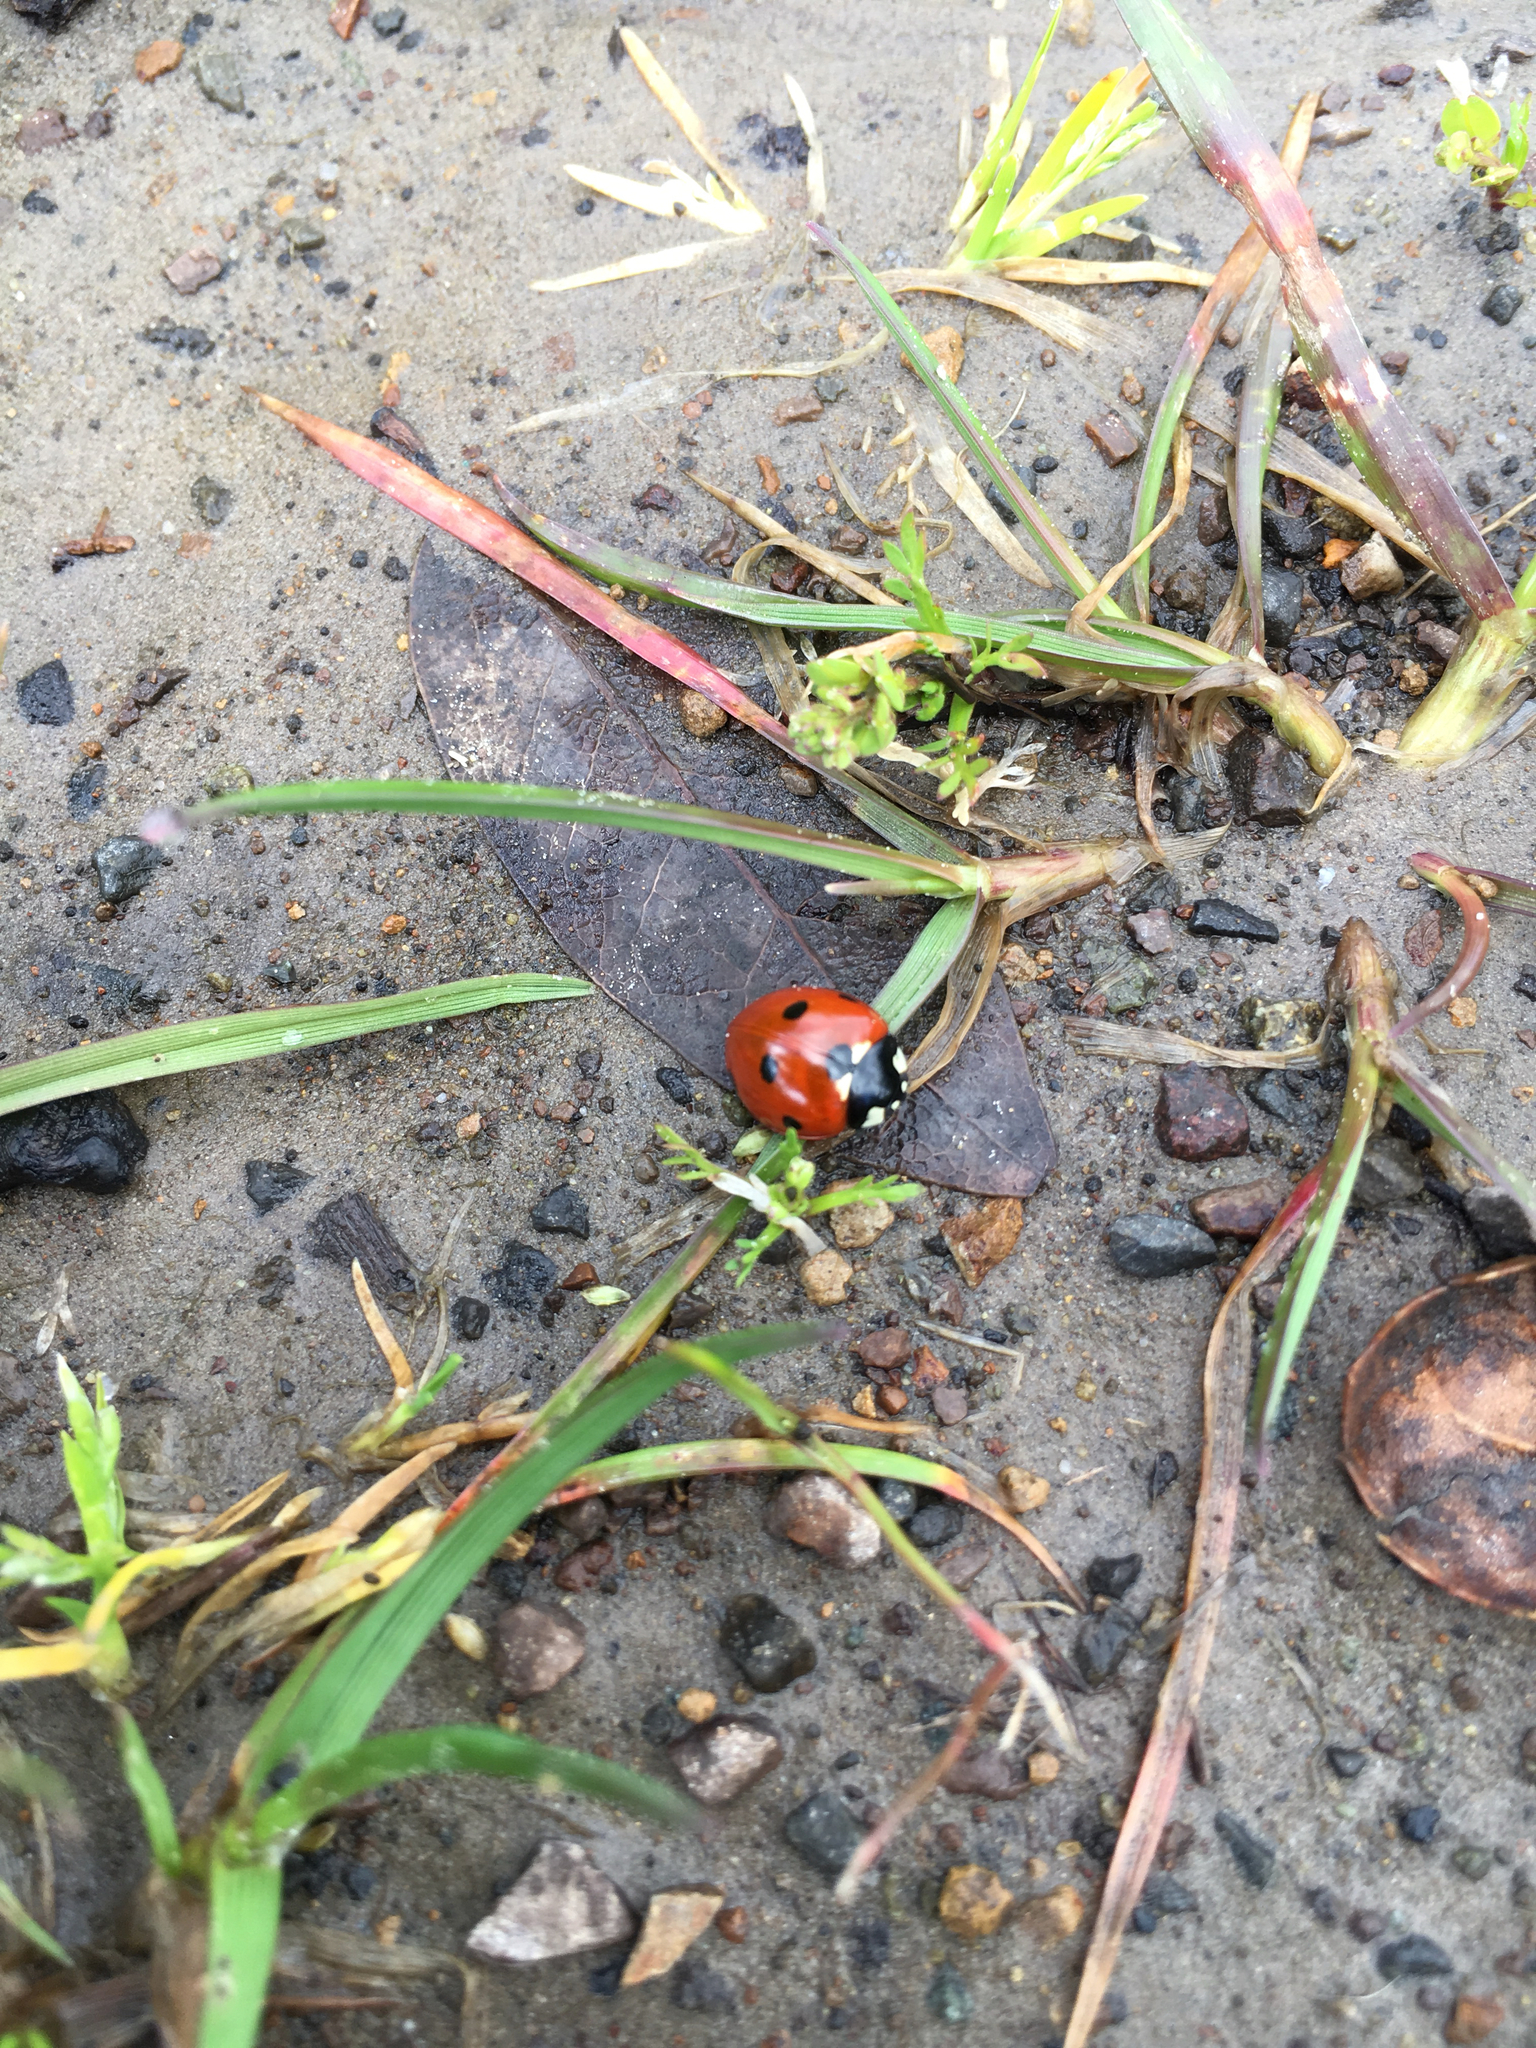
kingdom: Animalia
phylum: Arthropoda
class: Insecta
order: Coleoptera
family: Coccinellidae
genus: Coccinella
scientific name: Coccinella septempunctata
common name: Sevenspotted lady beetle
